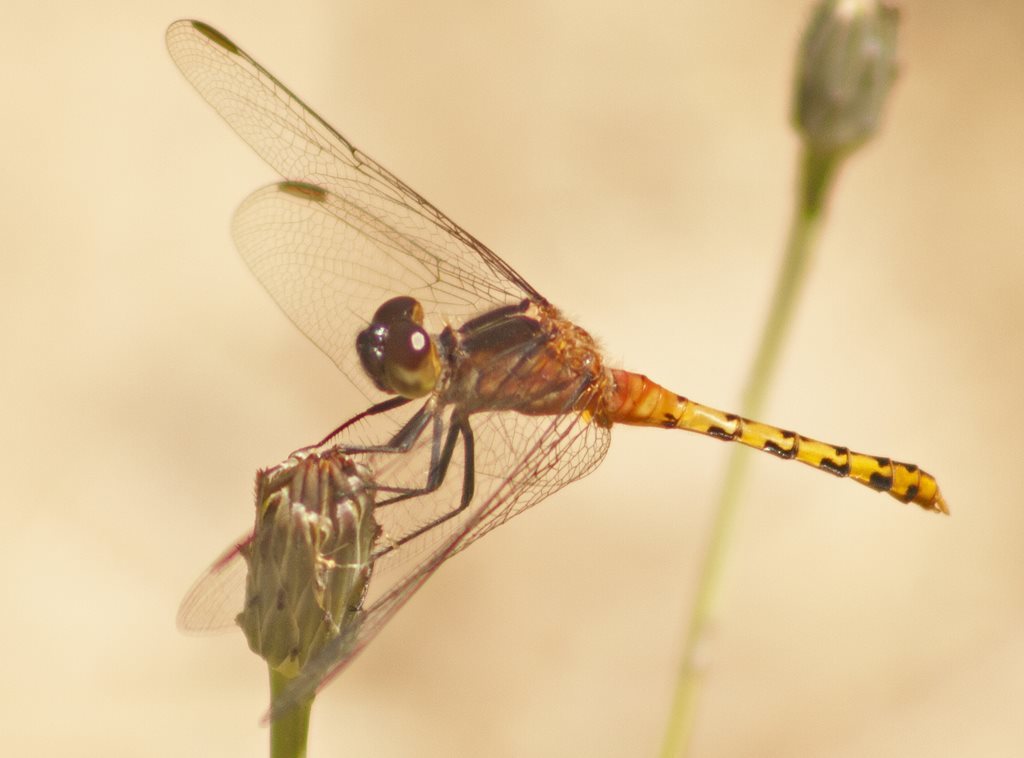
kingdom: Animalia
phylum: Arthropoda
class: Insecta
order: Odonata
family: Libellulidae
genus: Diplacodes
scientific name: Diplacodes melanopsis
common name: Black-faced percher
